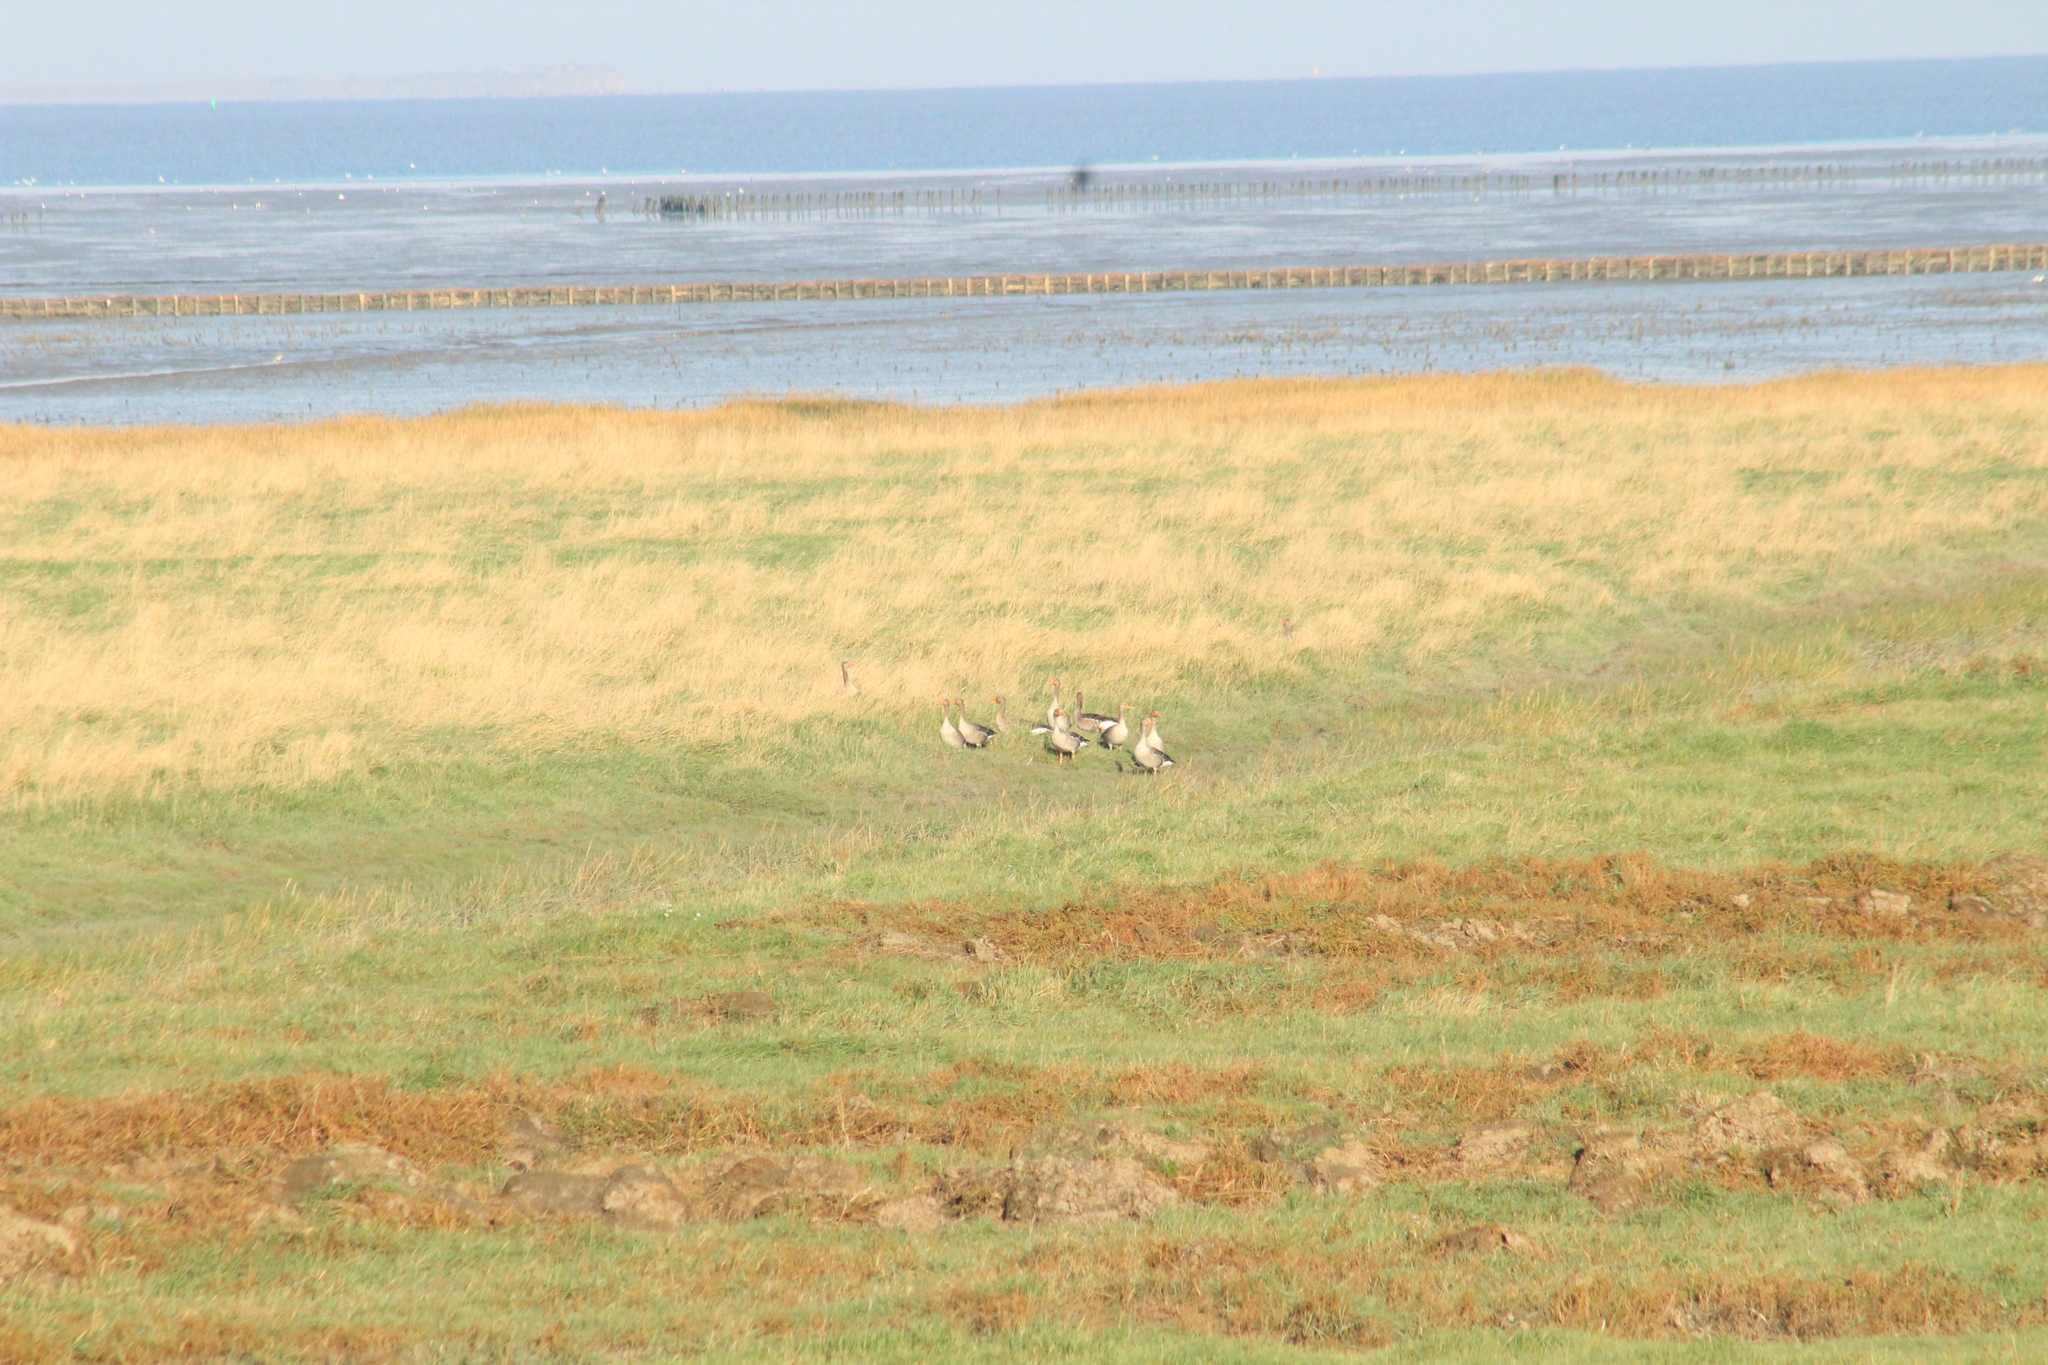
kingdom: Animalia
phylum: Chordata
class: Aves
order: Anseriformes
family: Anatidae
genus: Anser
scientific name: Anser anser
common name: Greylag goose
